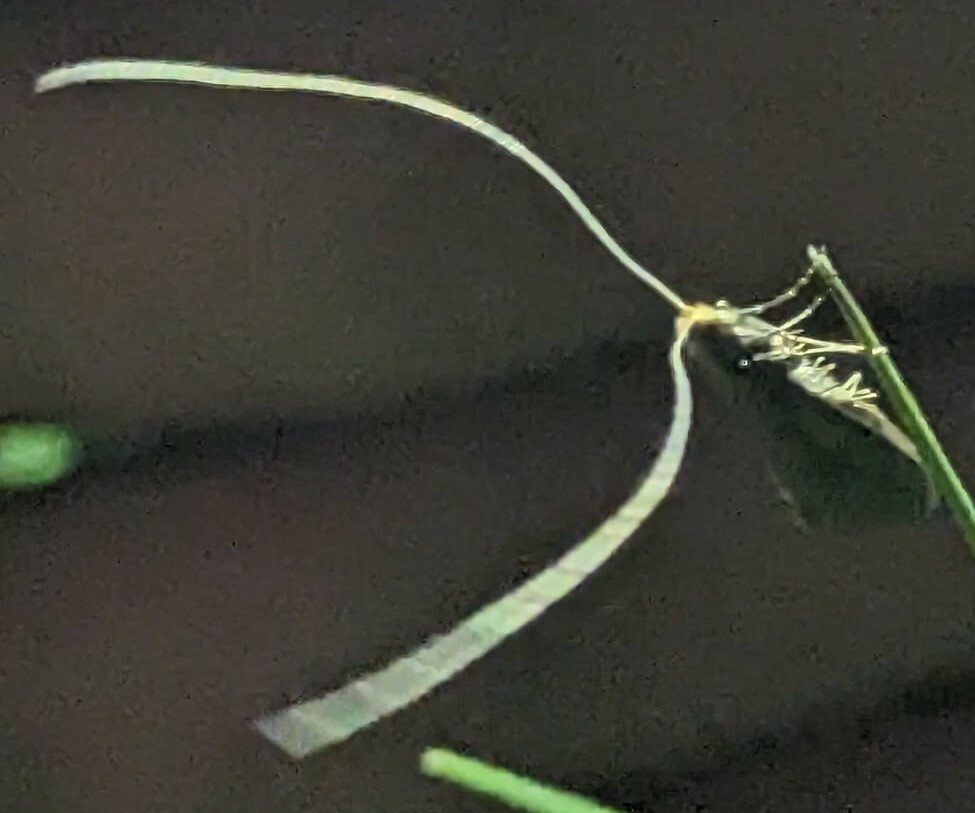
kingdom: Animalia
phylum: Arthropoda
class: Insecta
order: Lepidoptera
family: Adelidae
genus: Nematopogon
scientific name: Nematopogon swammerdamella
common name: Large long-horn
